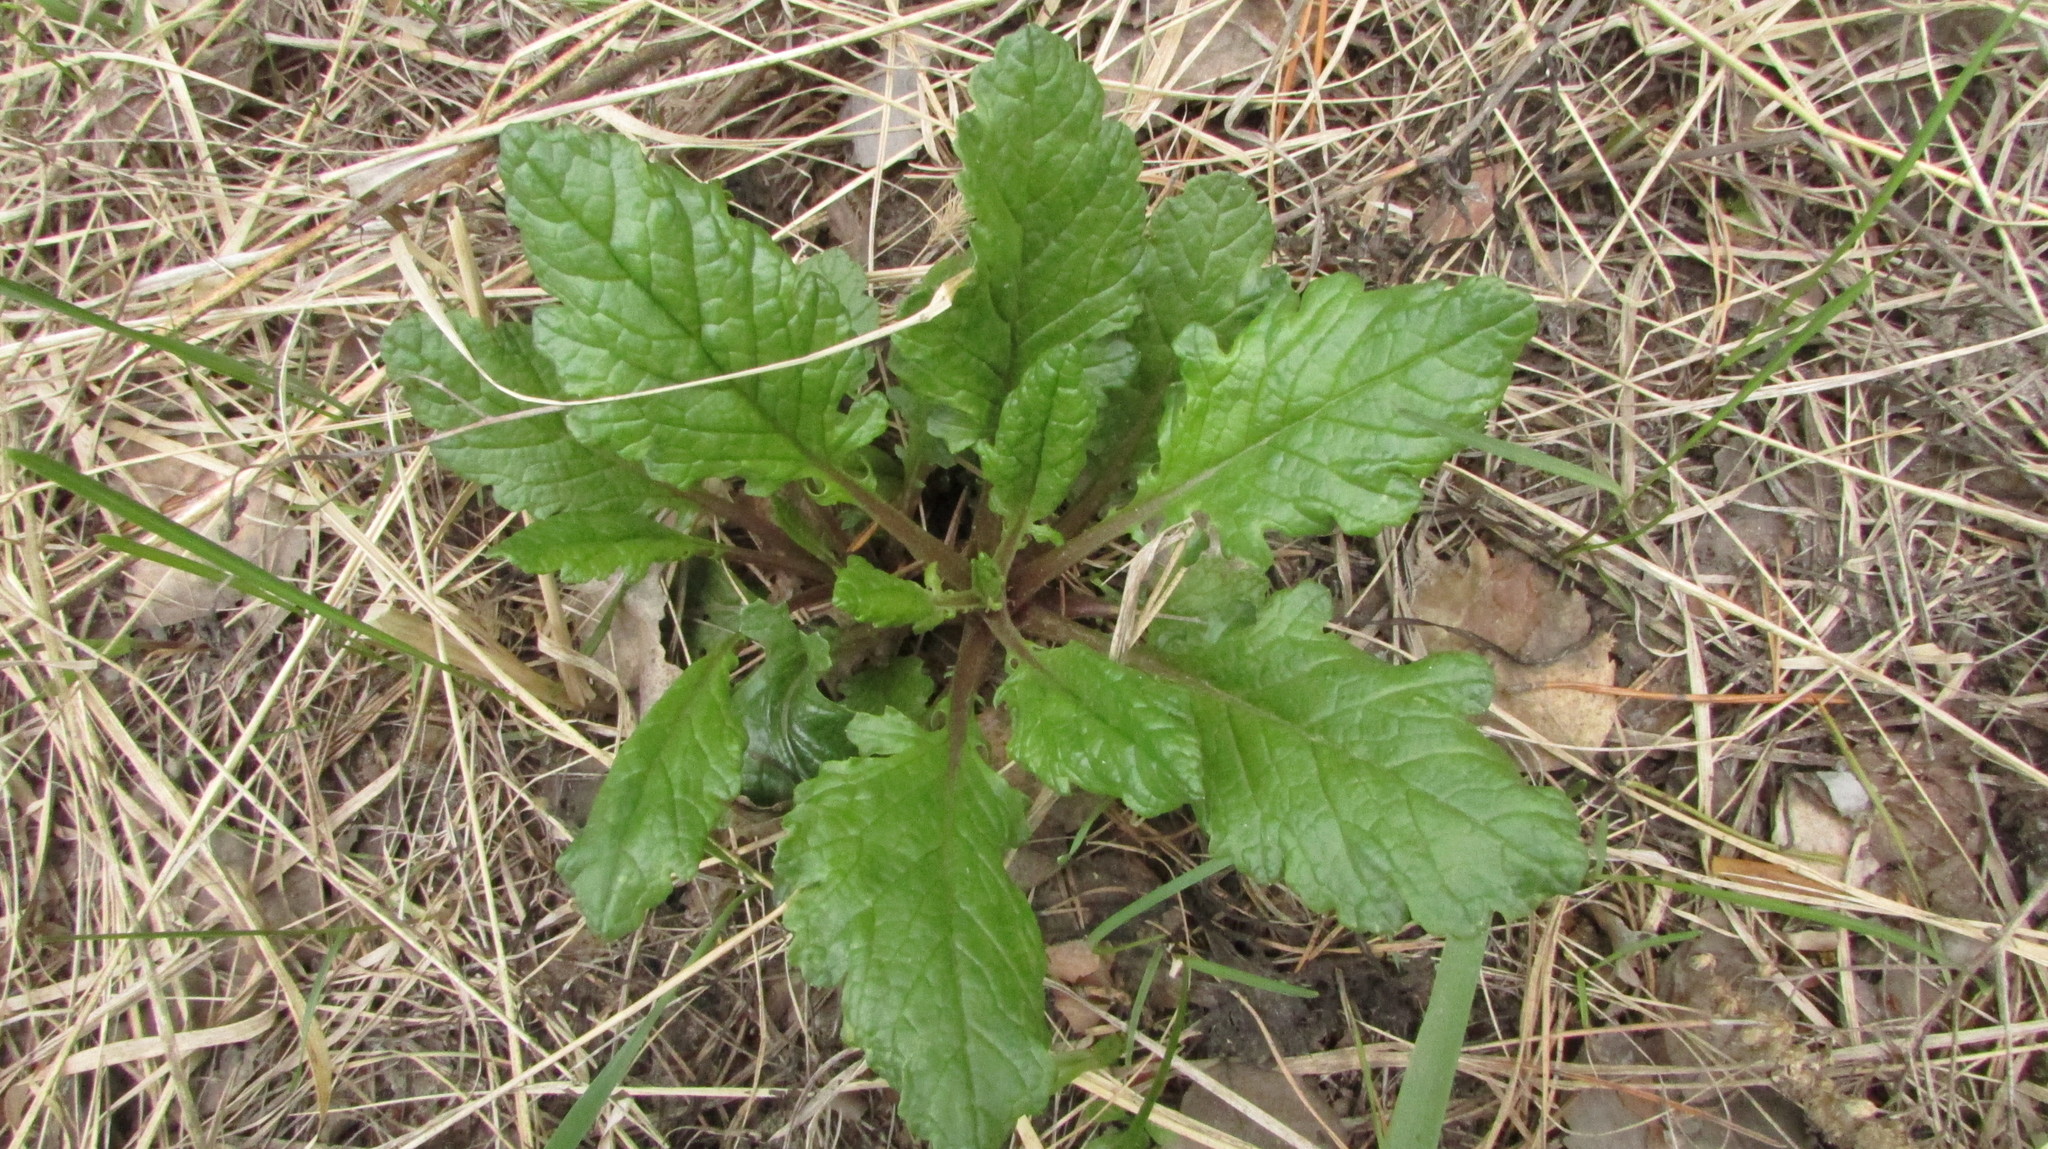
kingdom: Plantae
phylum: Tracheophyta
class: Magnoliopsida
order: Asterales
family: Asteraceae
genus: Jacobaea
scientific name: Jacobaea vulgaris
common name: Stinking willie
